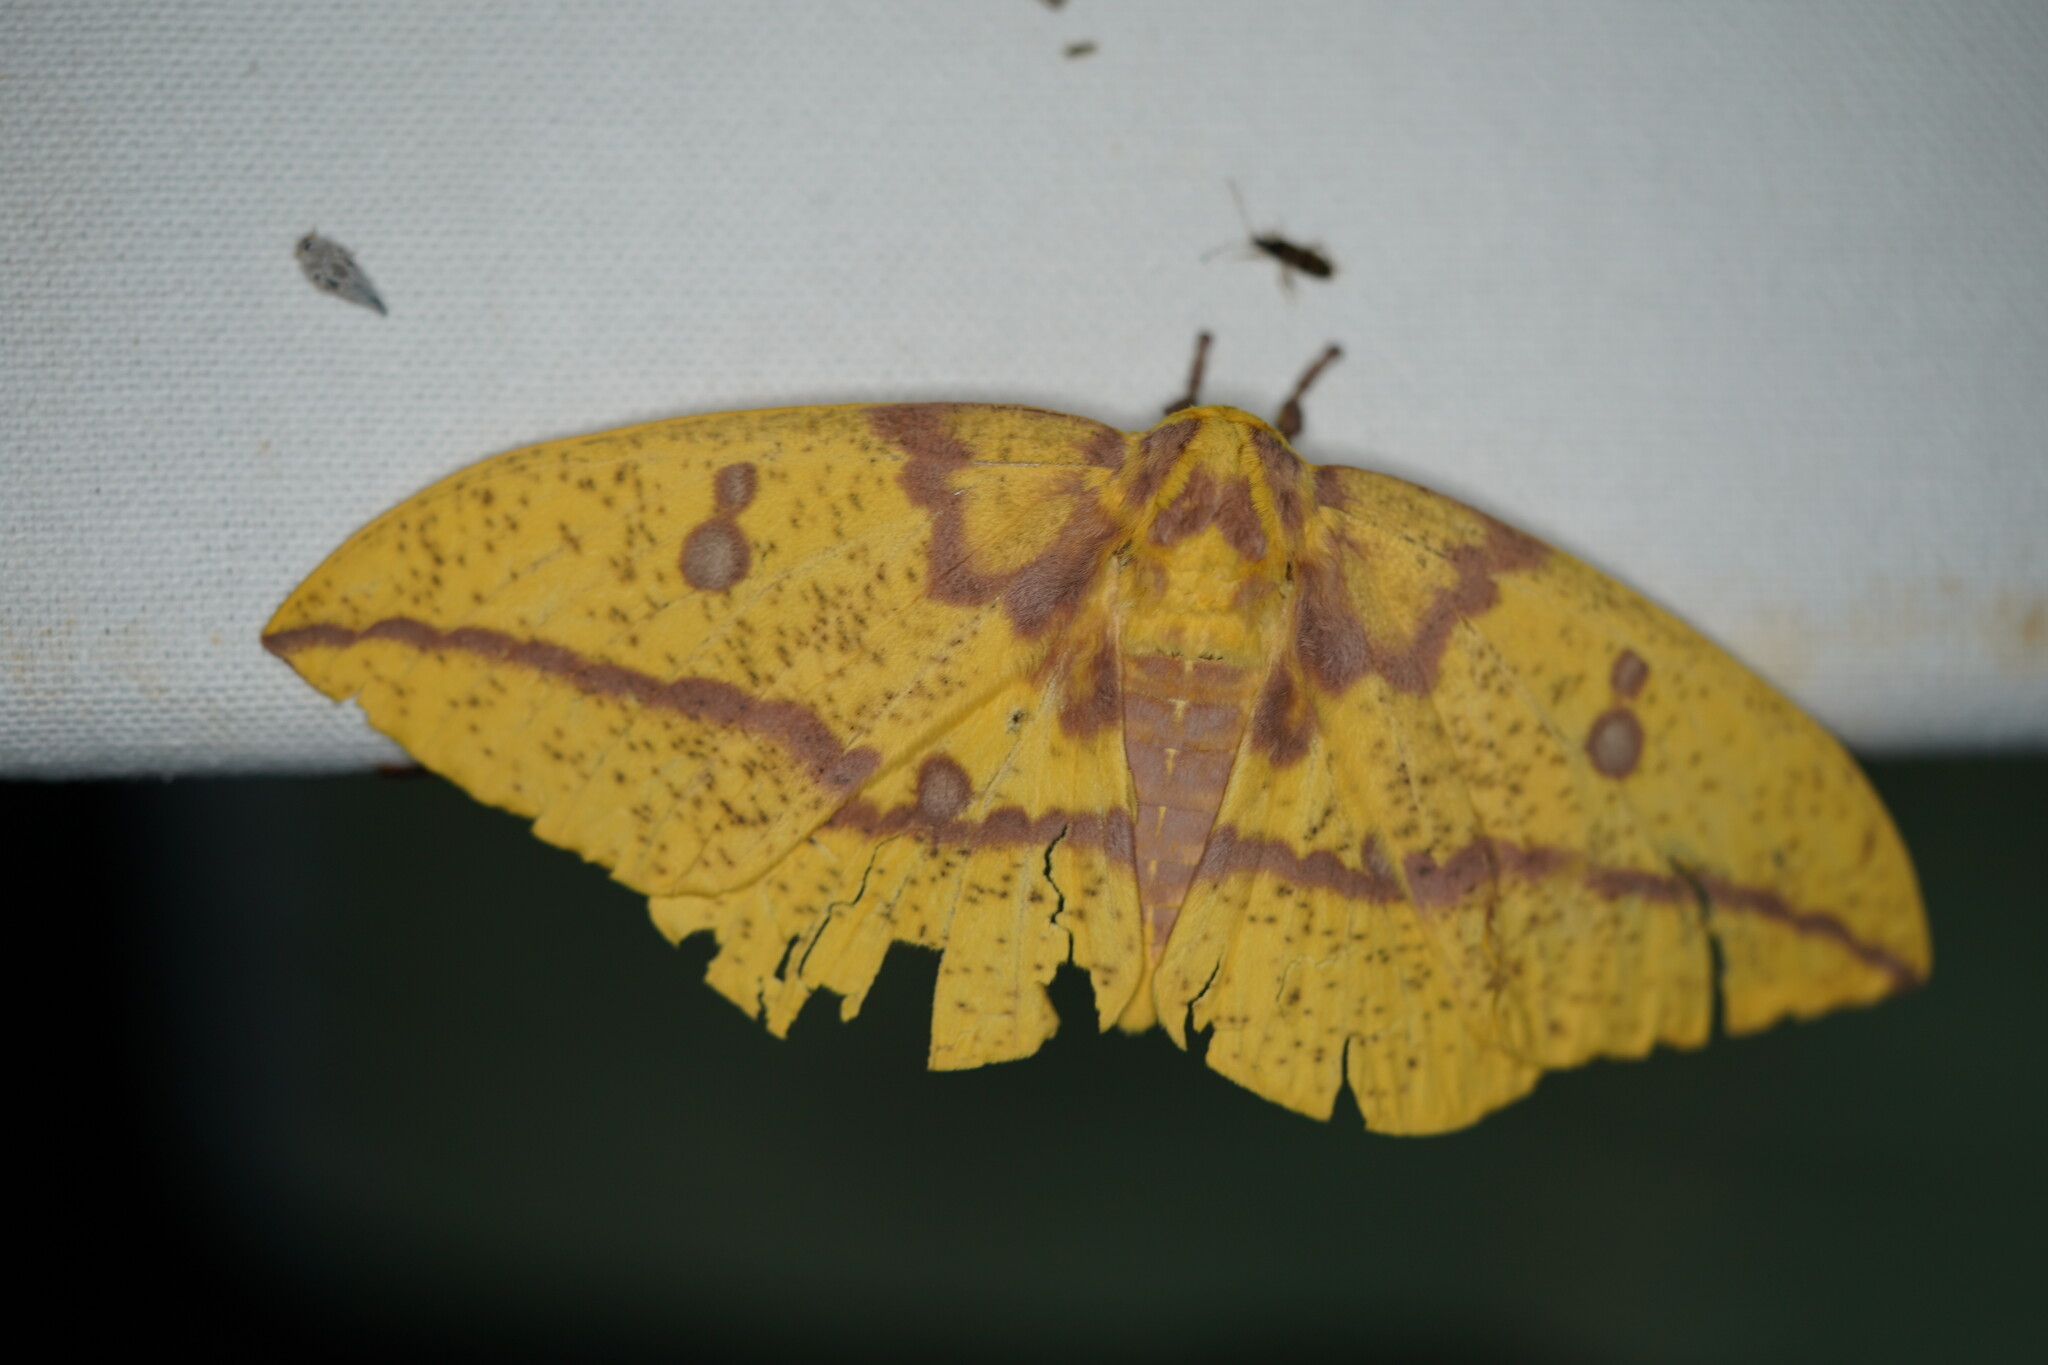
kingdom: Animalia
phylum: Arthropoda
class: Insecta
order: Lepidoptera
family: Saturniidae
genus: Eacles
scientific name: Eacles imperialis
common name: Imperial moth
